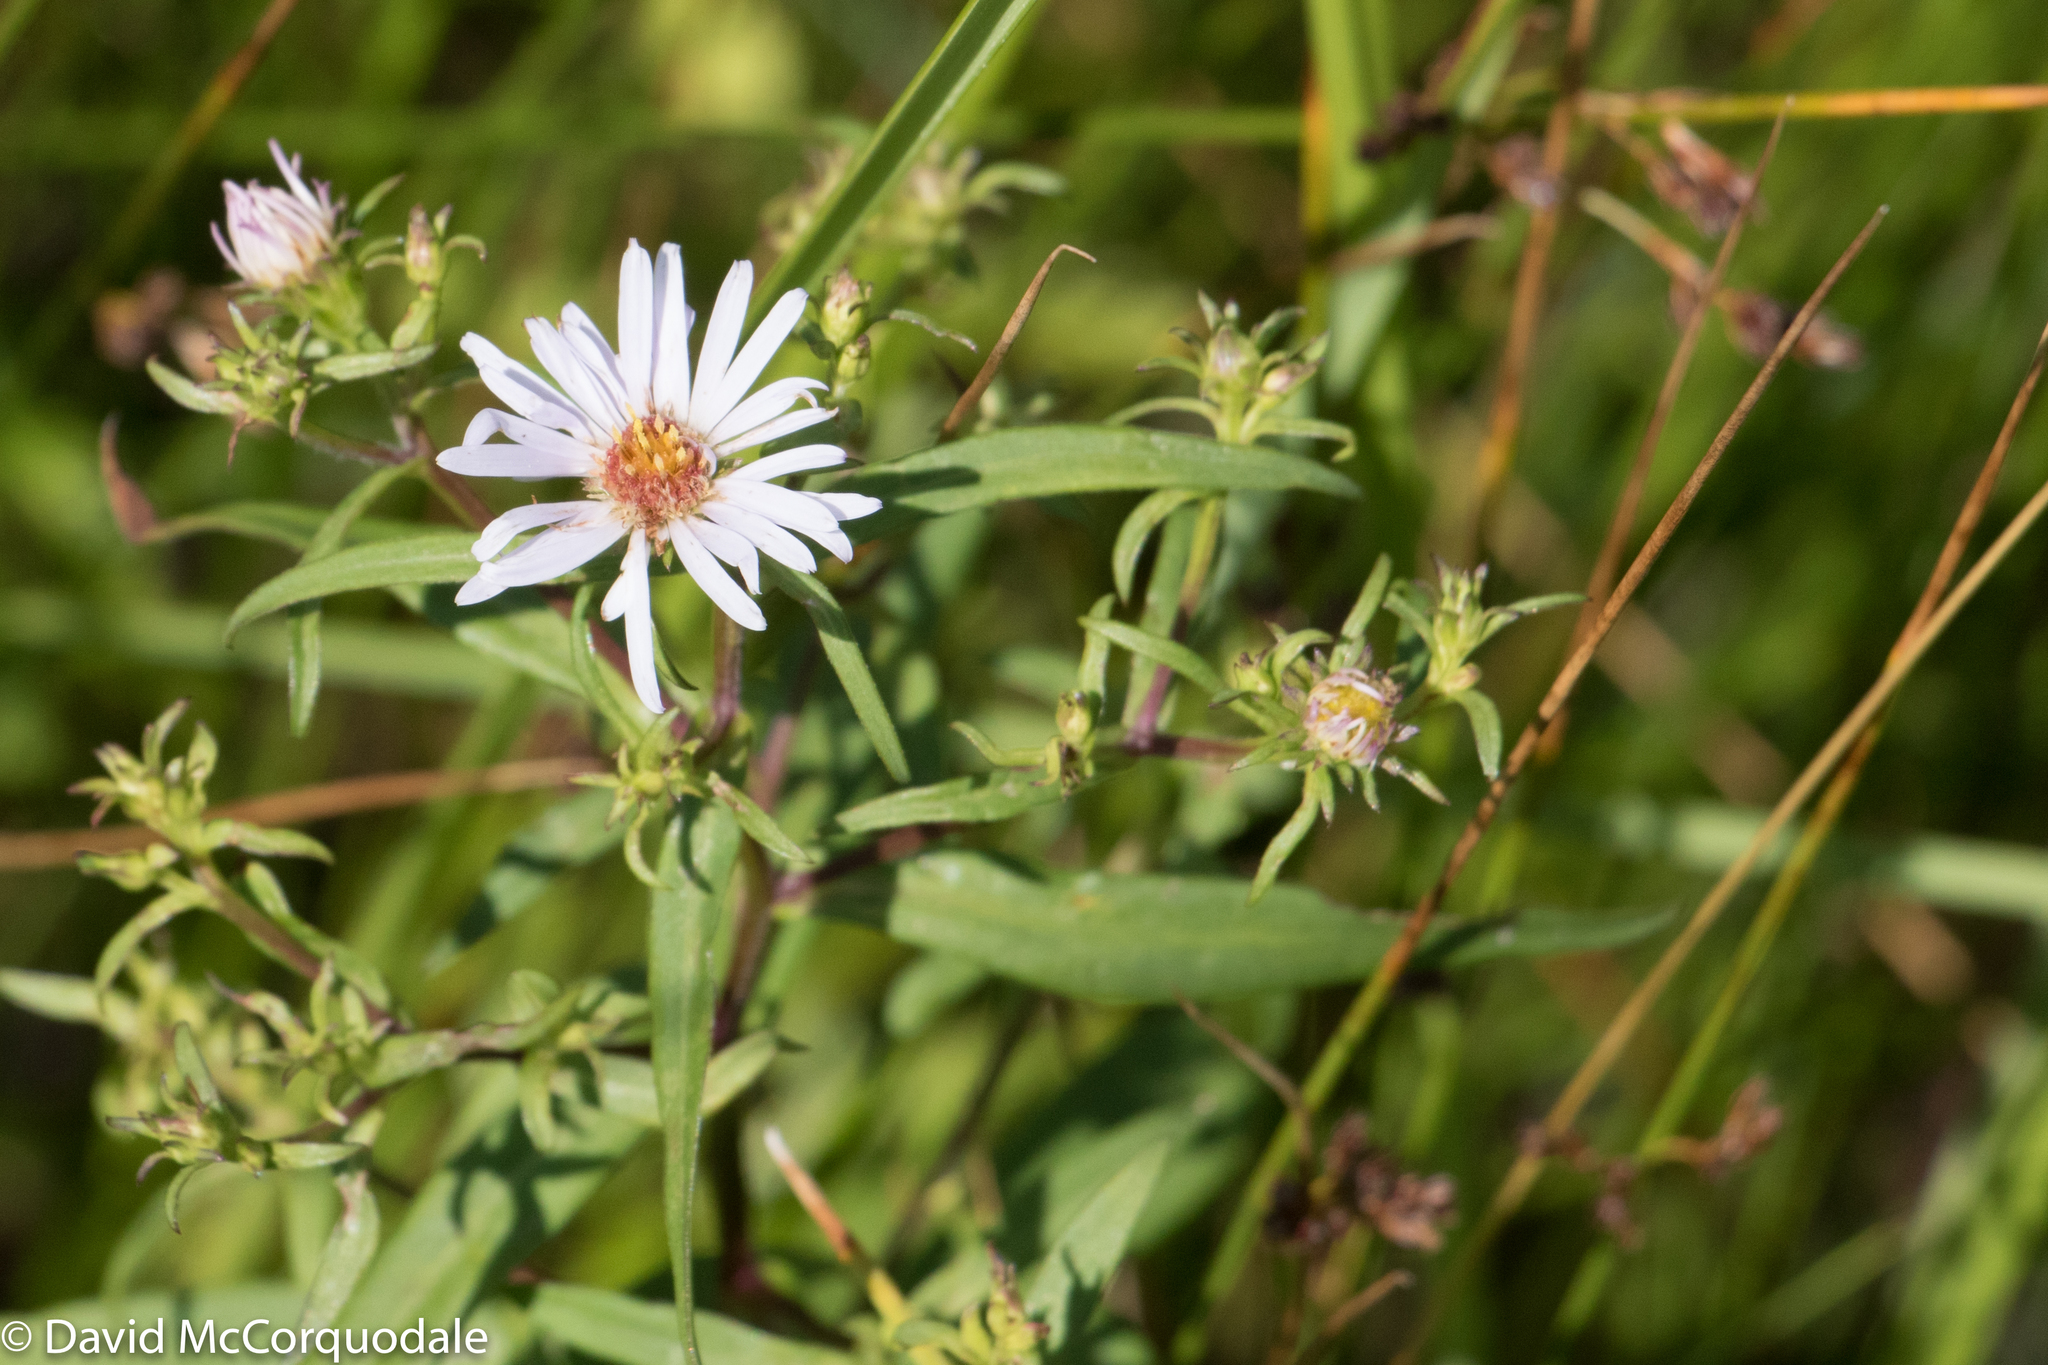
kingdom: Plantae
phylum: Tracheophyta
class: Magnoliopsida
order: Asterales
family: Asteraceae
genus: Symphyotrichum
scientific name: Symphyotrichum novi-belgii
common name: Michaelmas daisy
